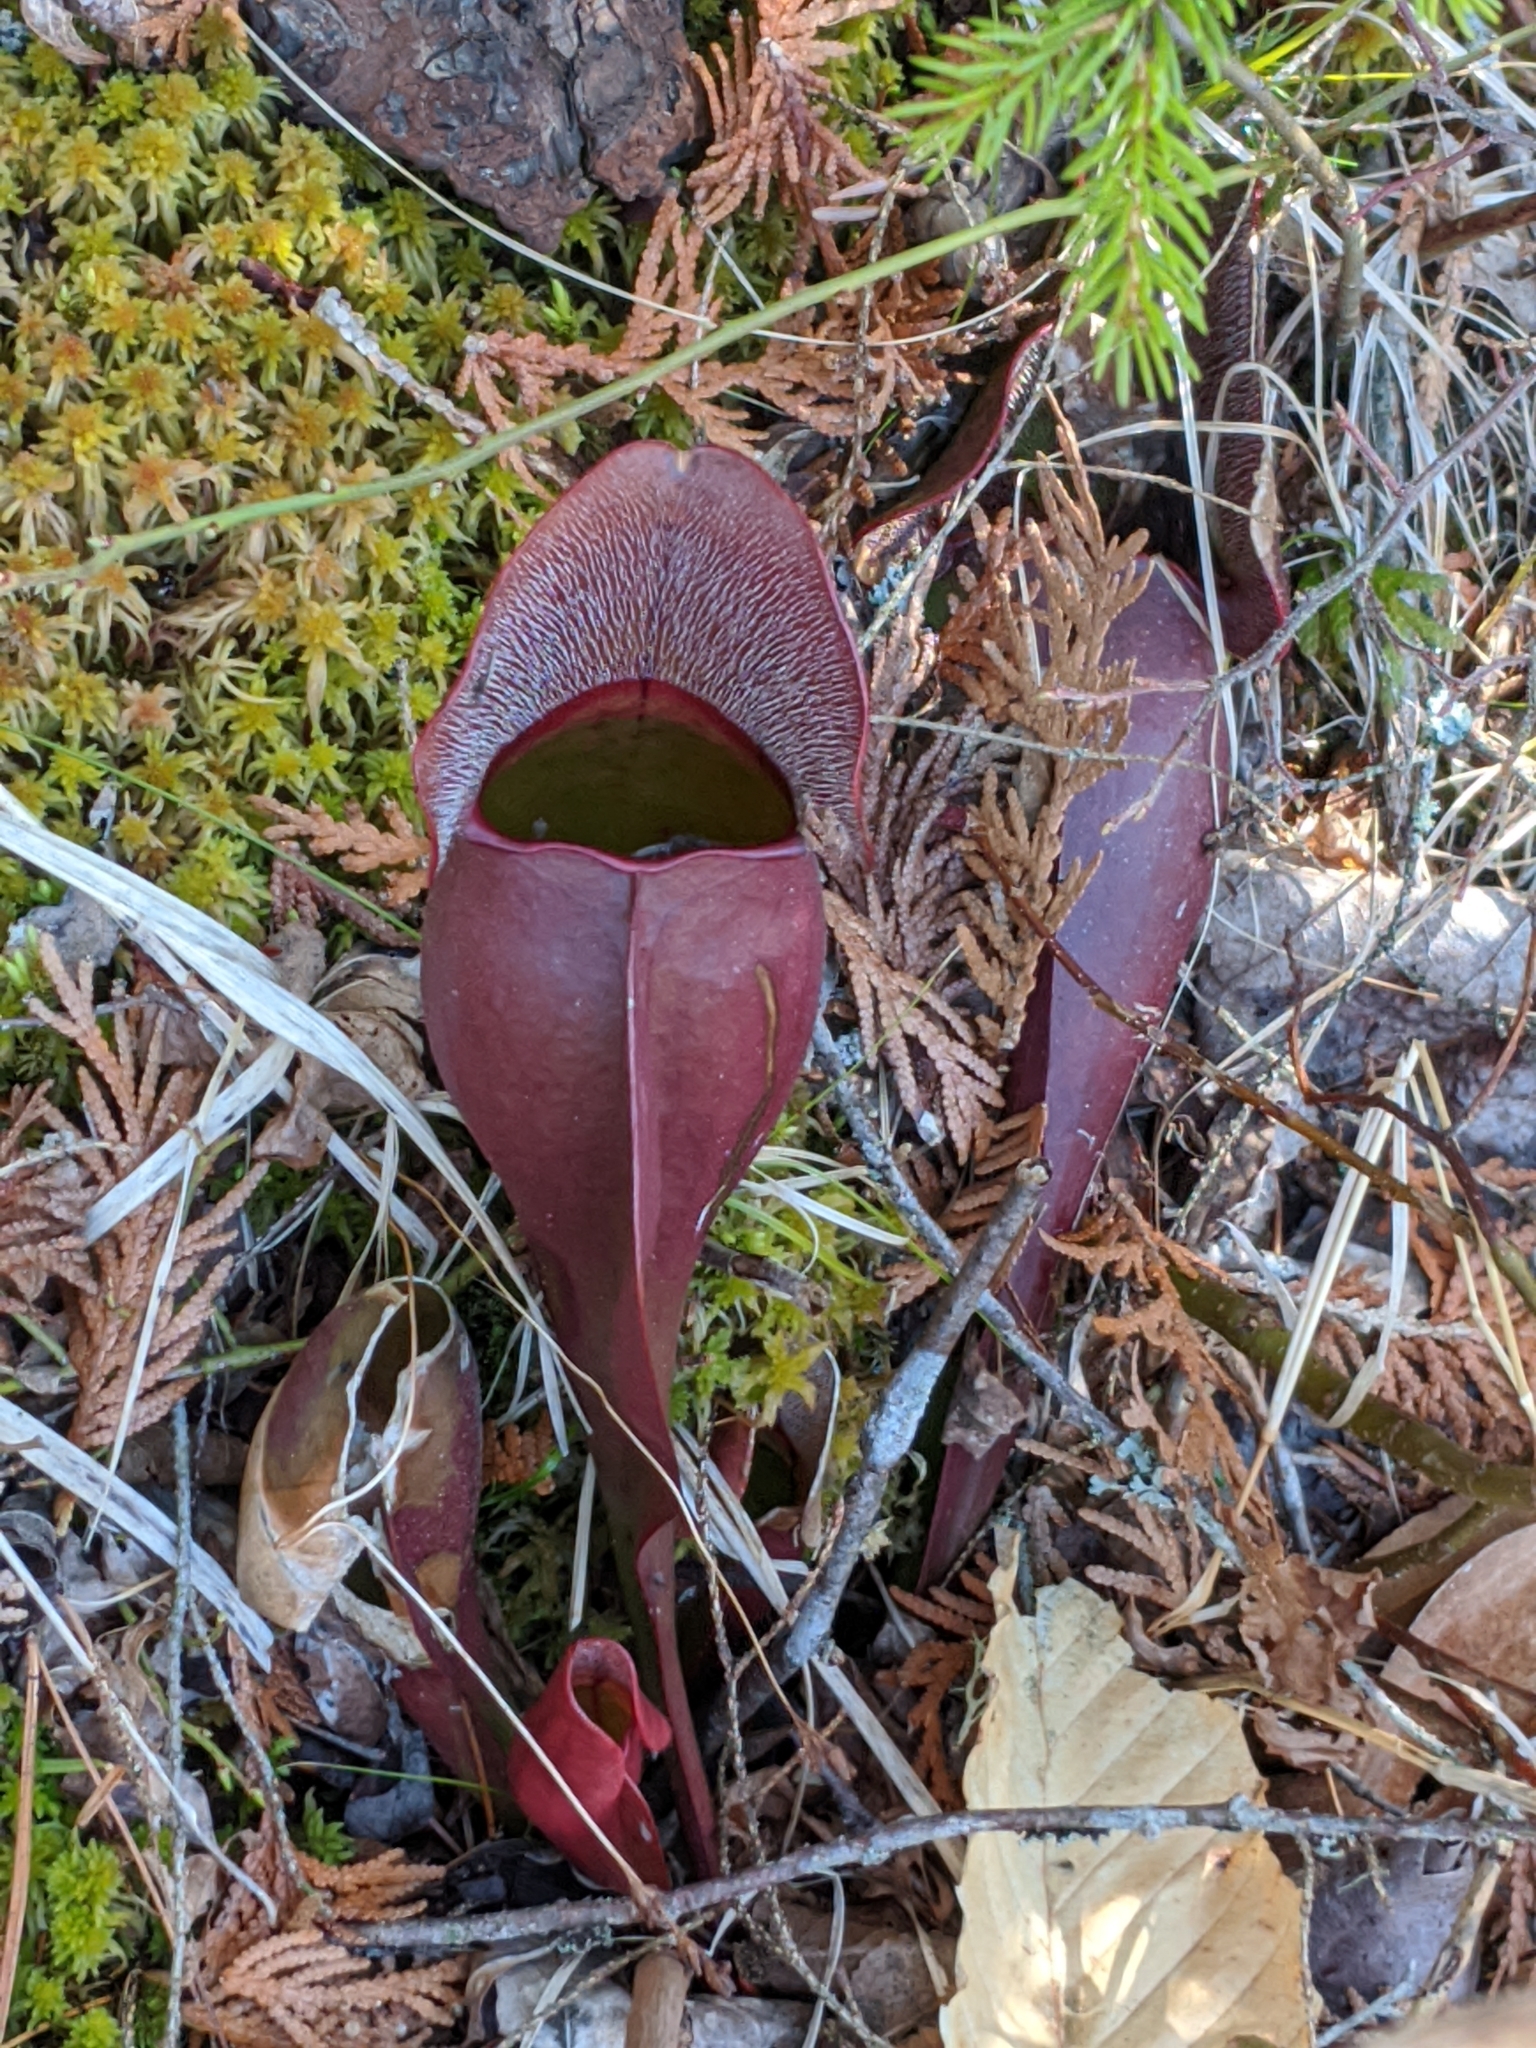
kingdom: Plantae
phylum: Tracheophyta
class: Magnoliopsida
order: Ericales
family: Sarraceniaceae
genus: Sarracenia
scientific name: Sarracenia purpurea
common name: Pitcherplant
